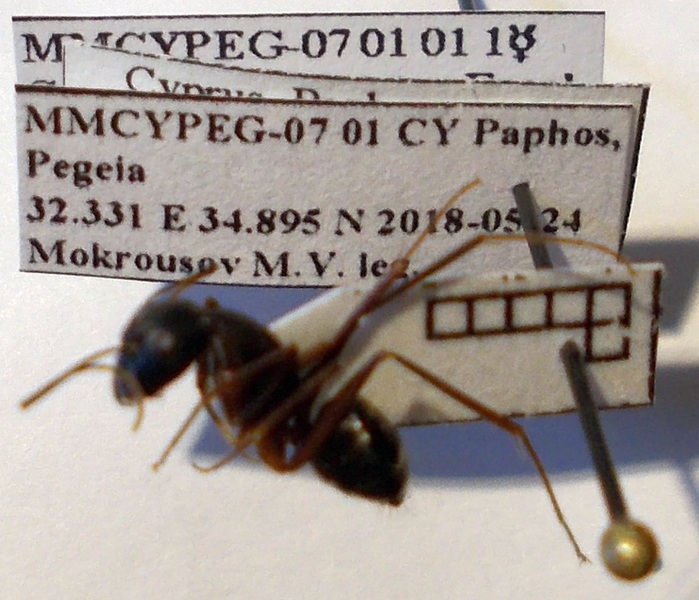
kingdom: Animalia
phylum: Arthropoda
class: Insecta
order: Hymenoptera
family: Formicidae
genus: Camponotus
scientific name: Camponotus sanctus
